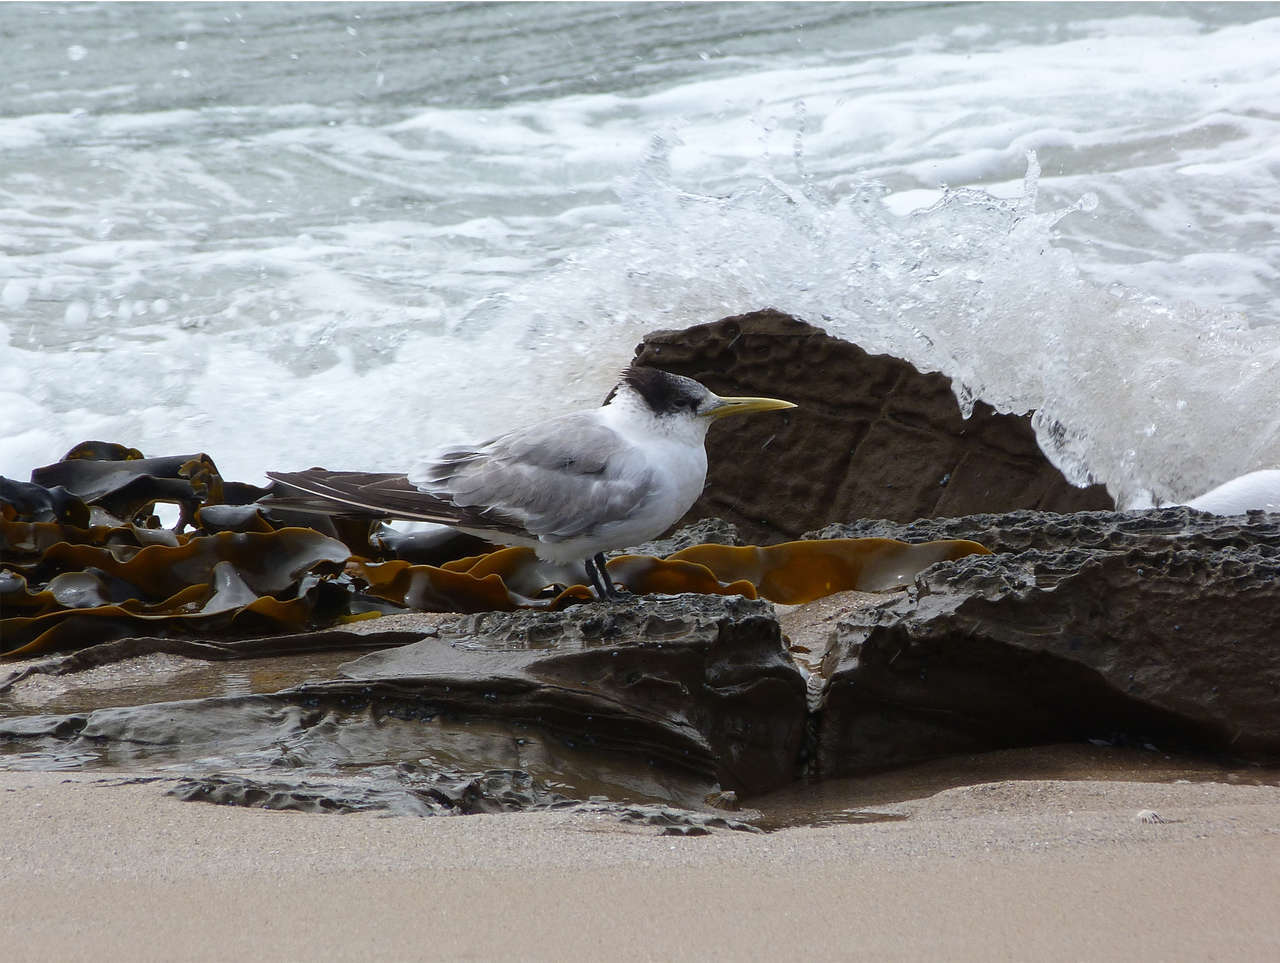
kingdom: Animalia
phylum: Chordata
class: Aves
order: Charadriiformes
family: Laridae
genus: Thalasseus
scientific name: Thalasseus bergii
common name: Greater crested tern
